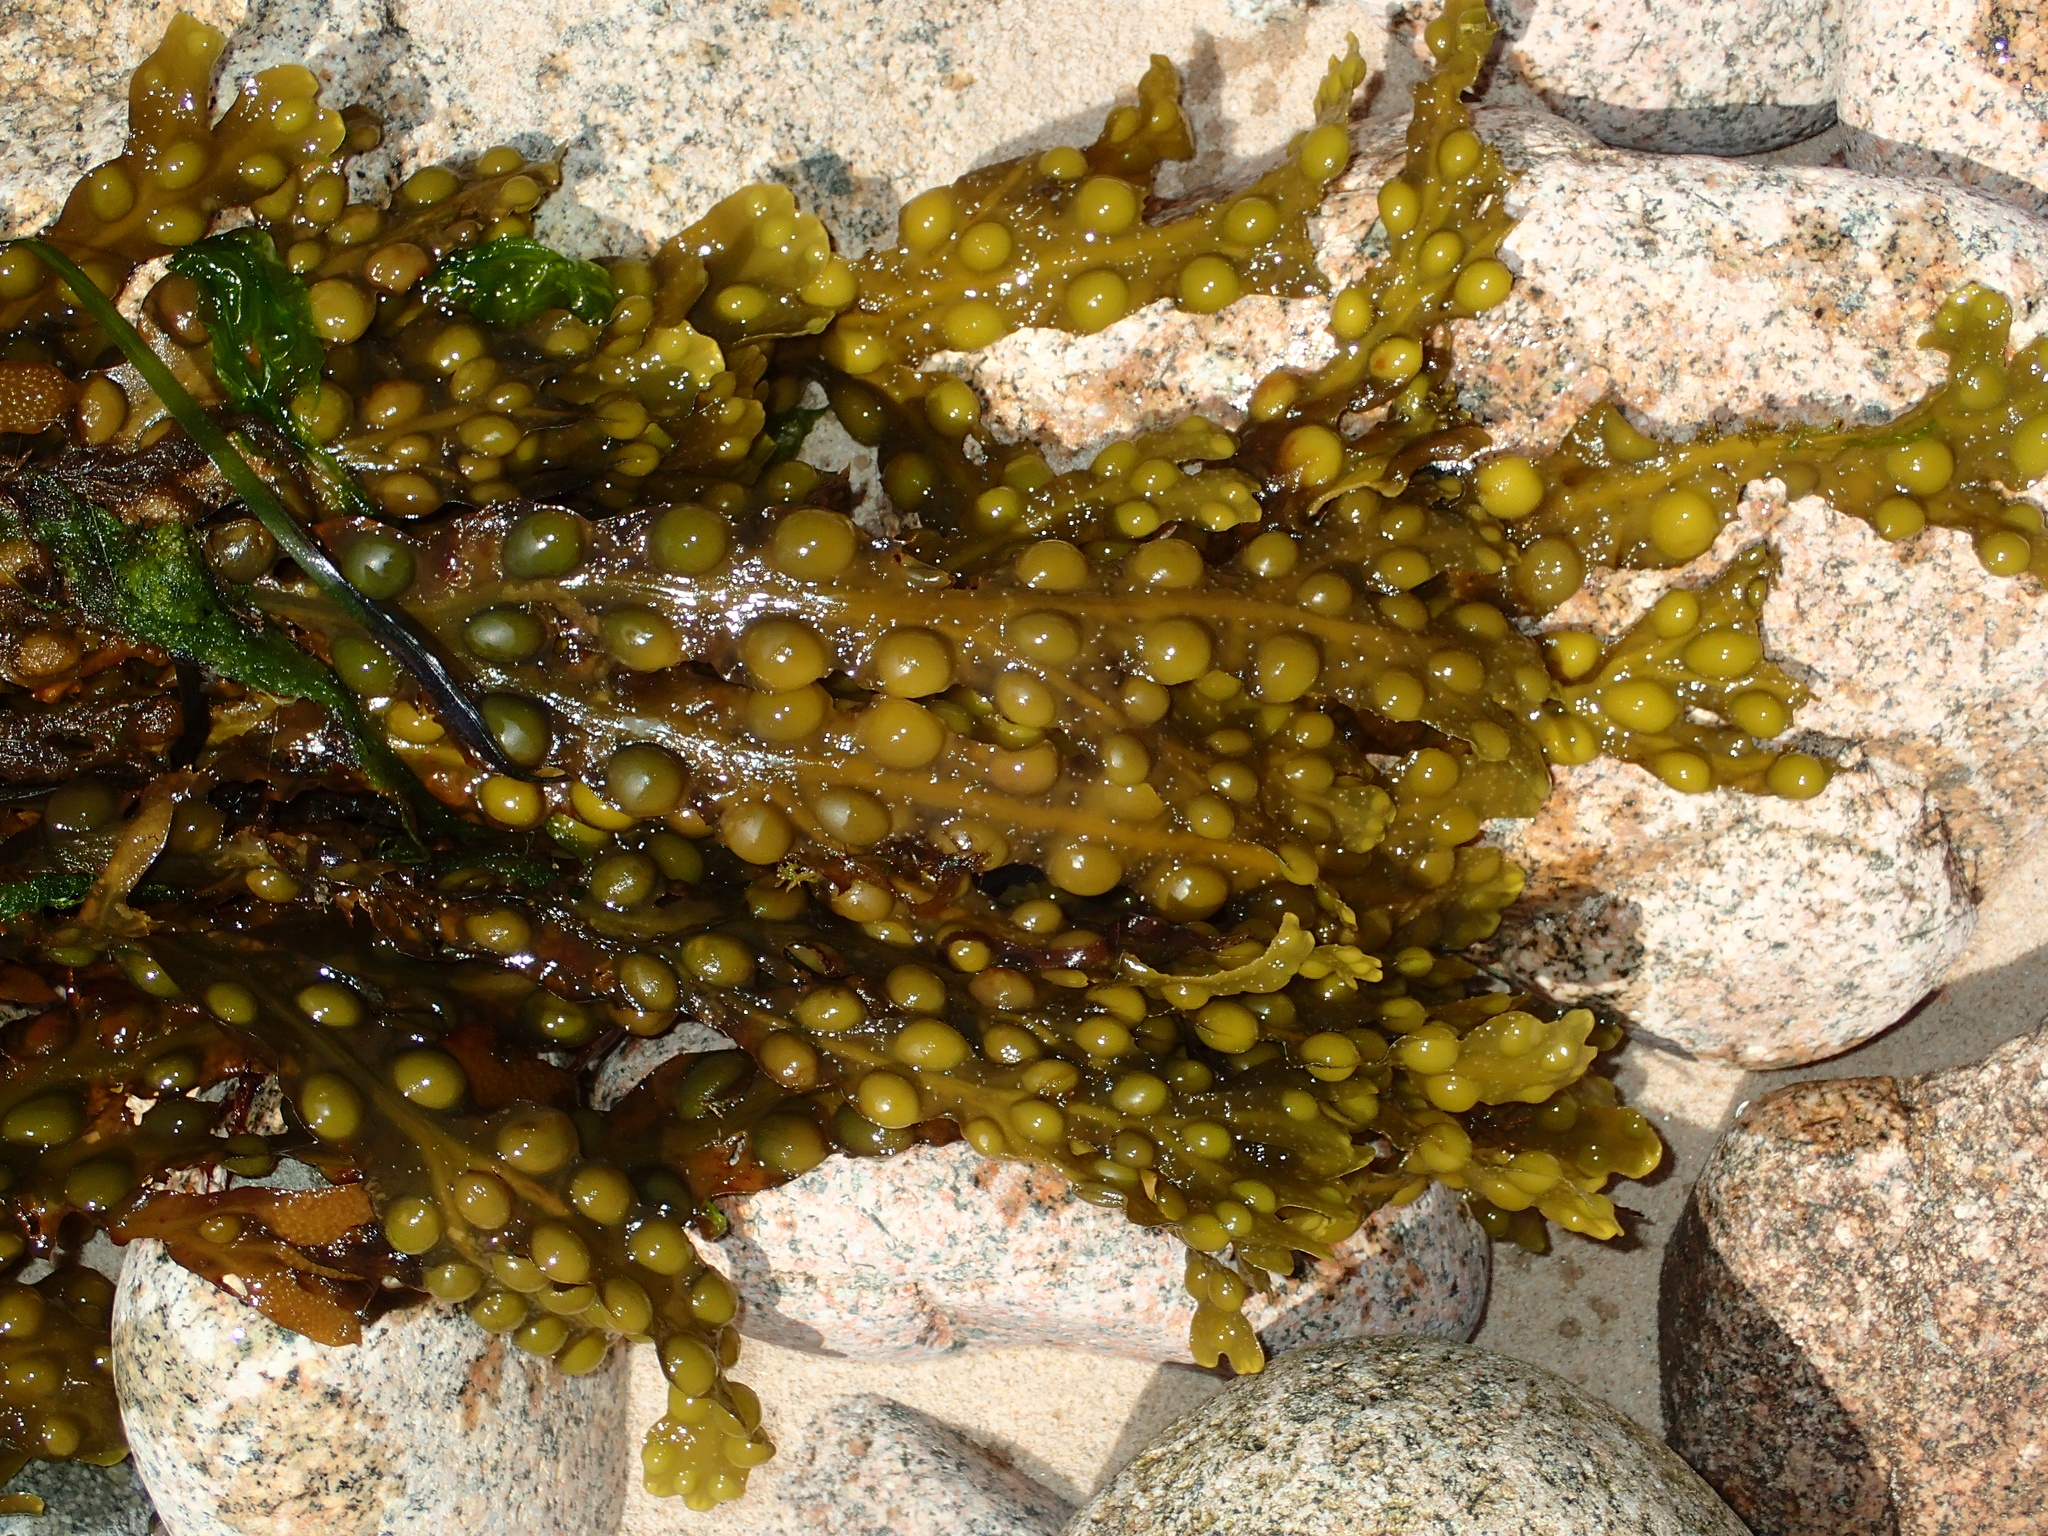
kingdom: Chromista
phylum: Ochrophyta
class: Phaeophyceae
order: Fucales
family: Fucaceae
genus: Fucus
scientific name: Fucus vesiculosus
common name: Bladder wrack
